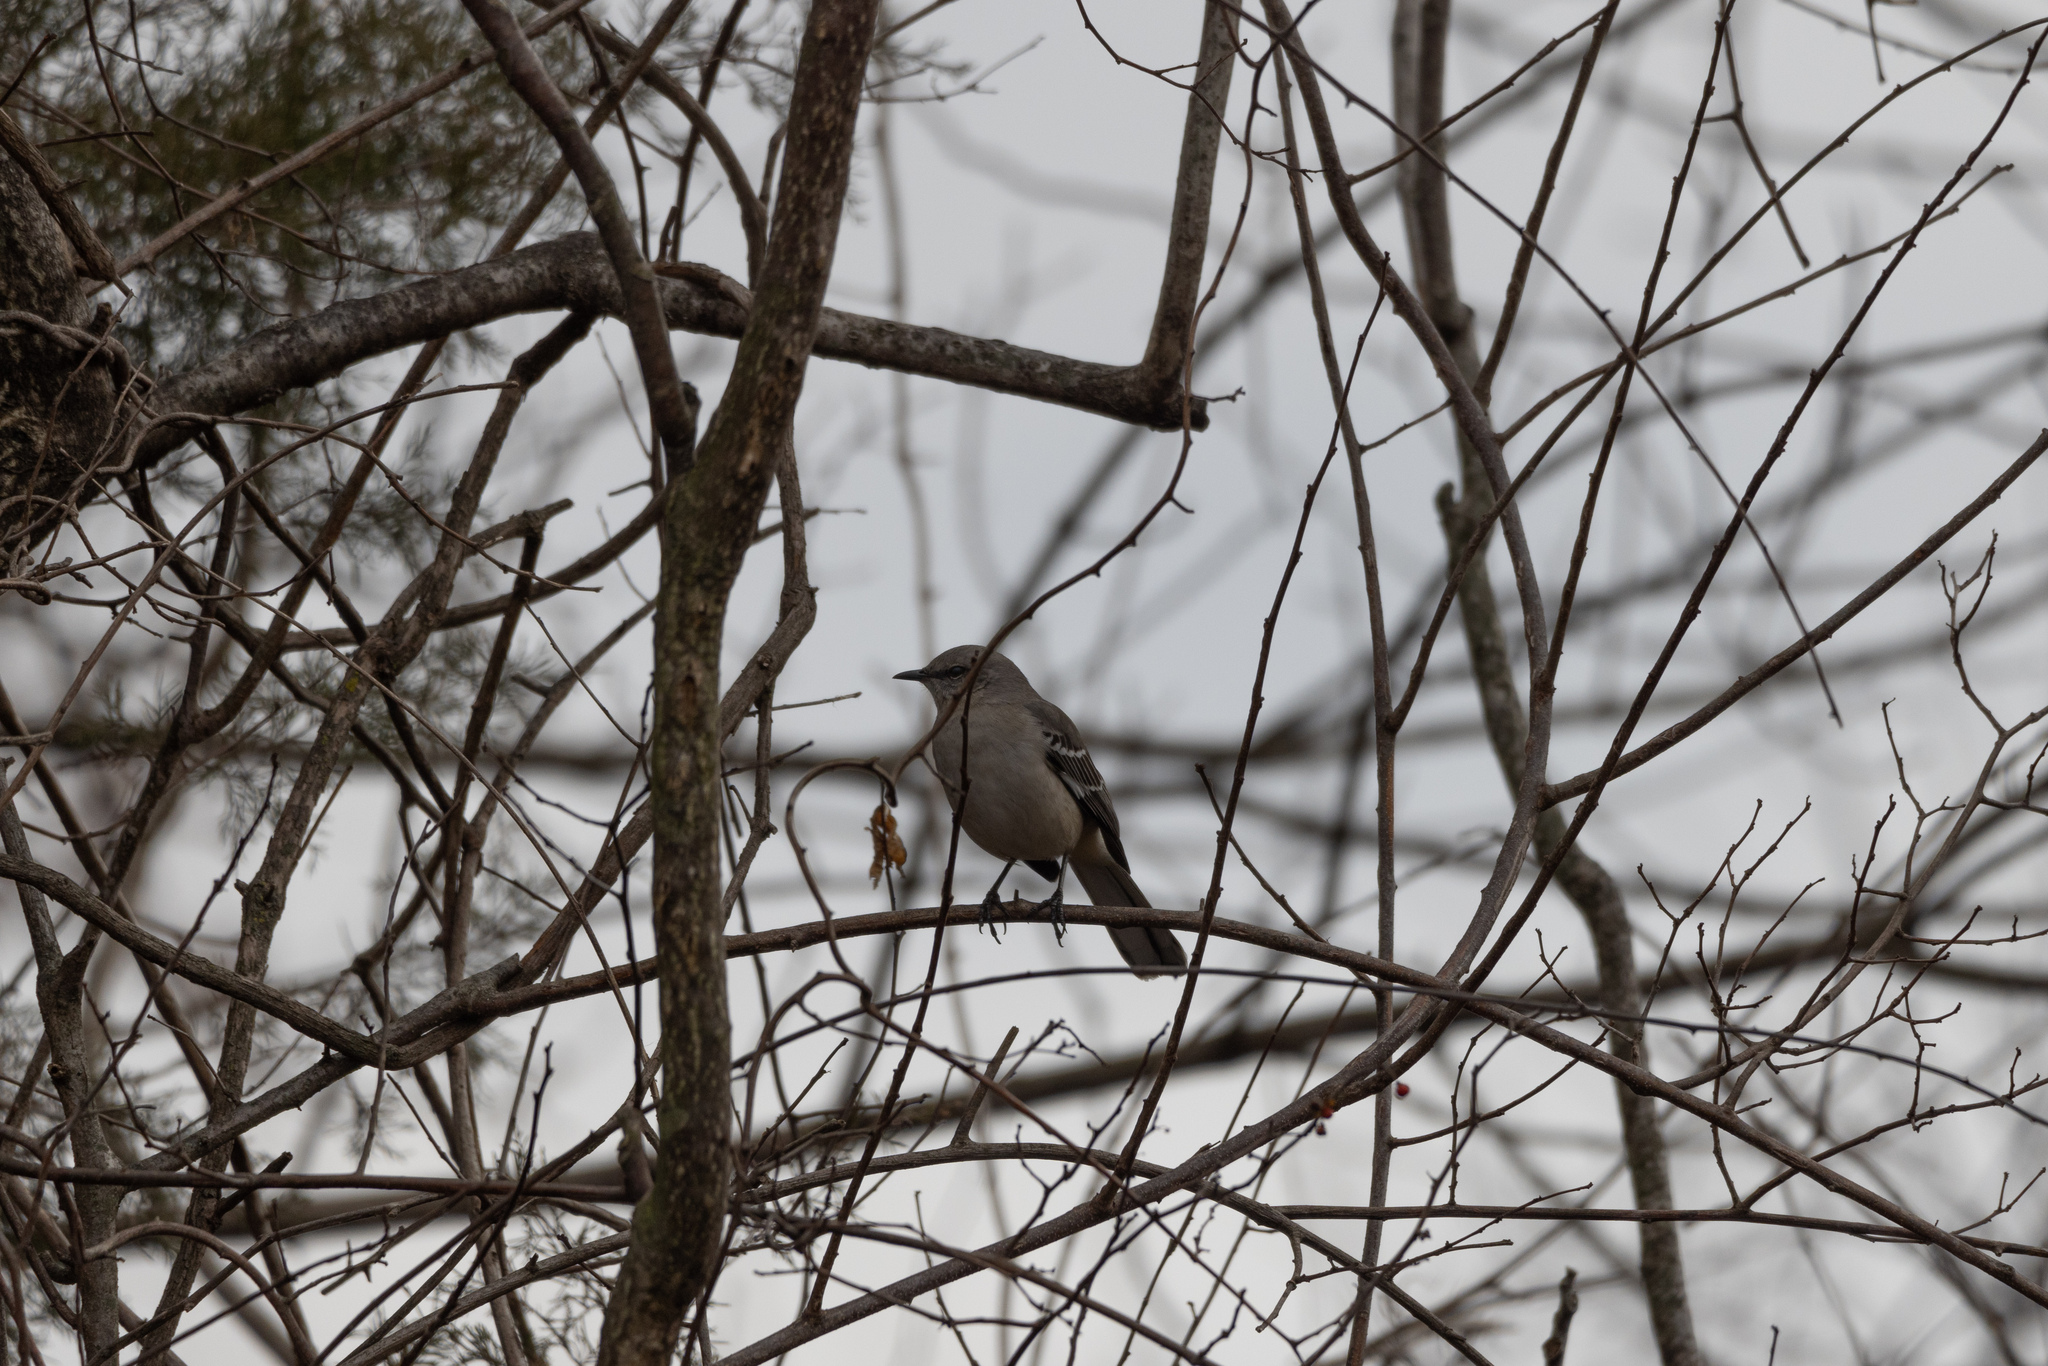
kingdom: Animalia
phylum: Chordata
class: Aves
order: Passeriformes
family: Mimidae
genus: Mimus
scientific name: Mimus polyglottos
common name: Northern mockingbird
